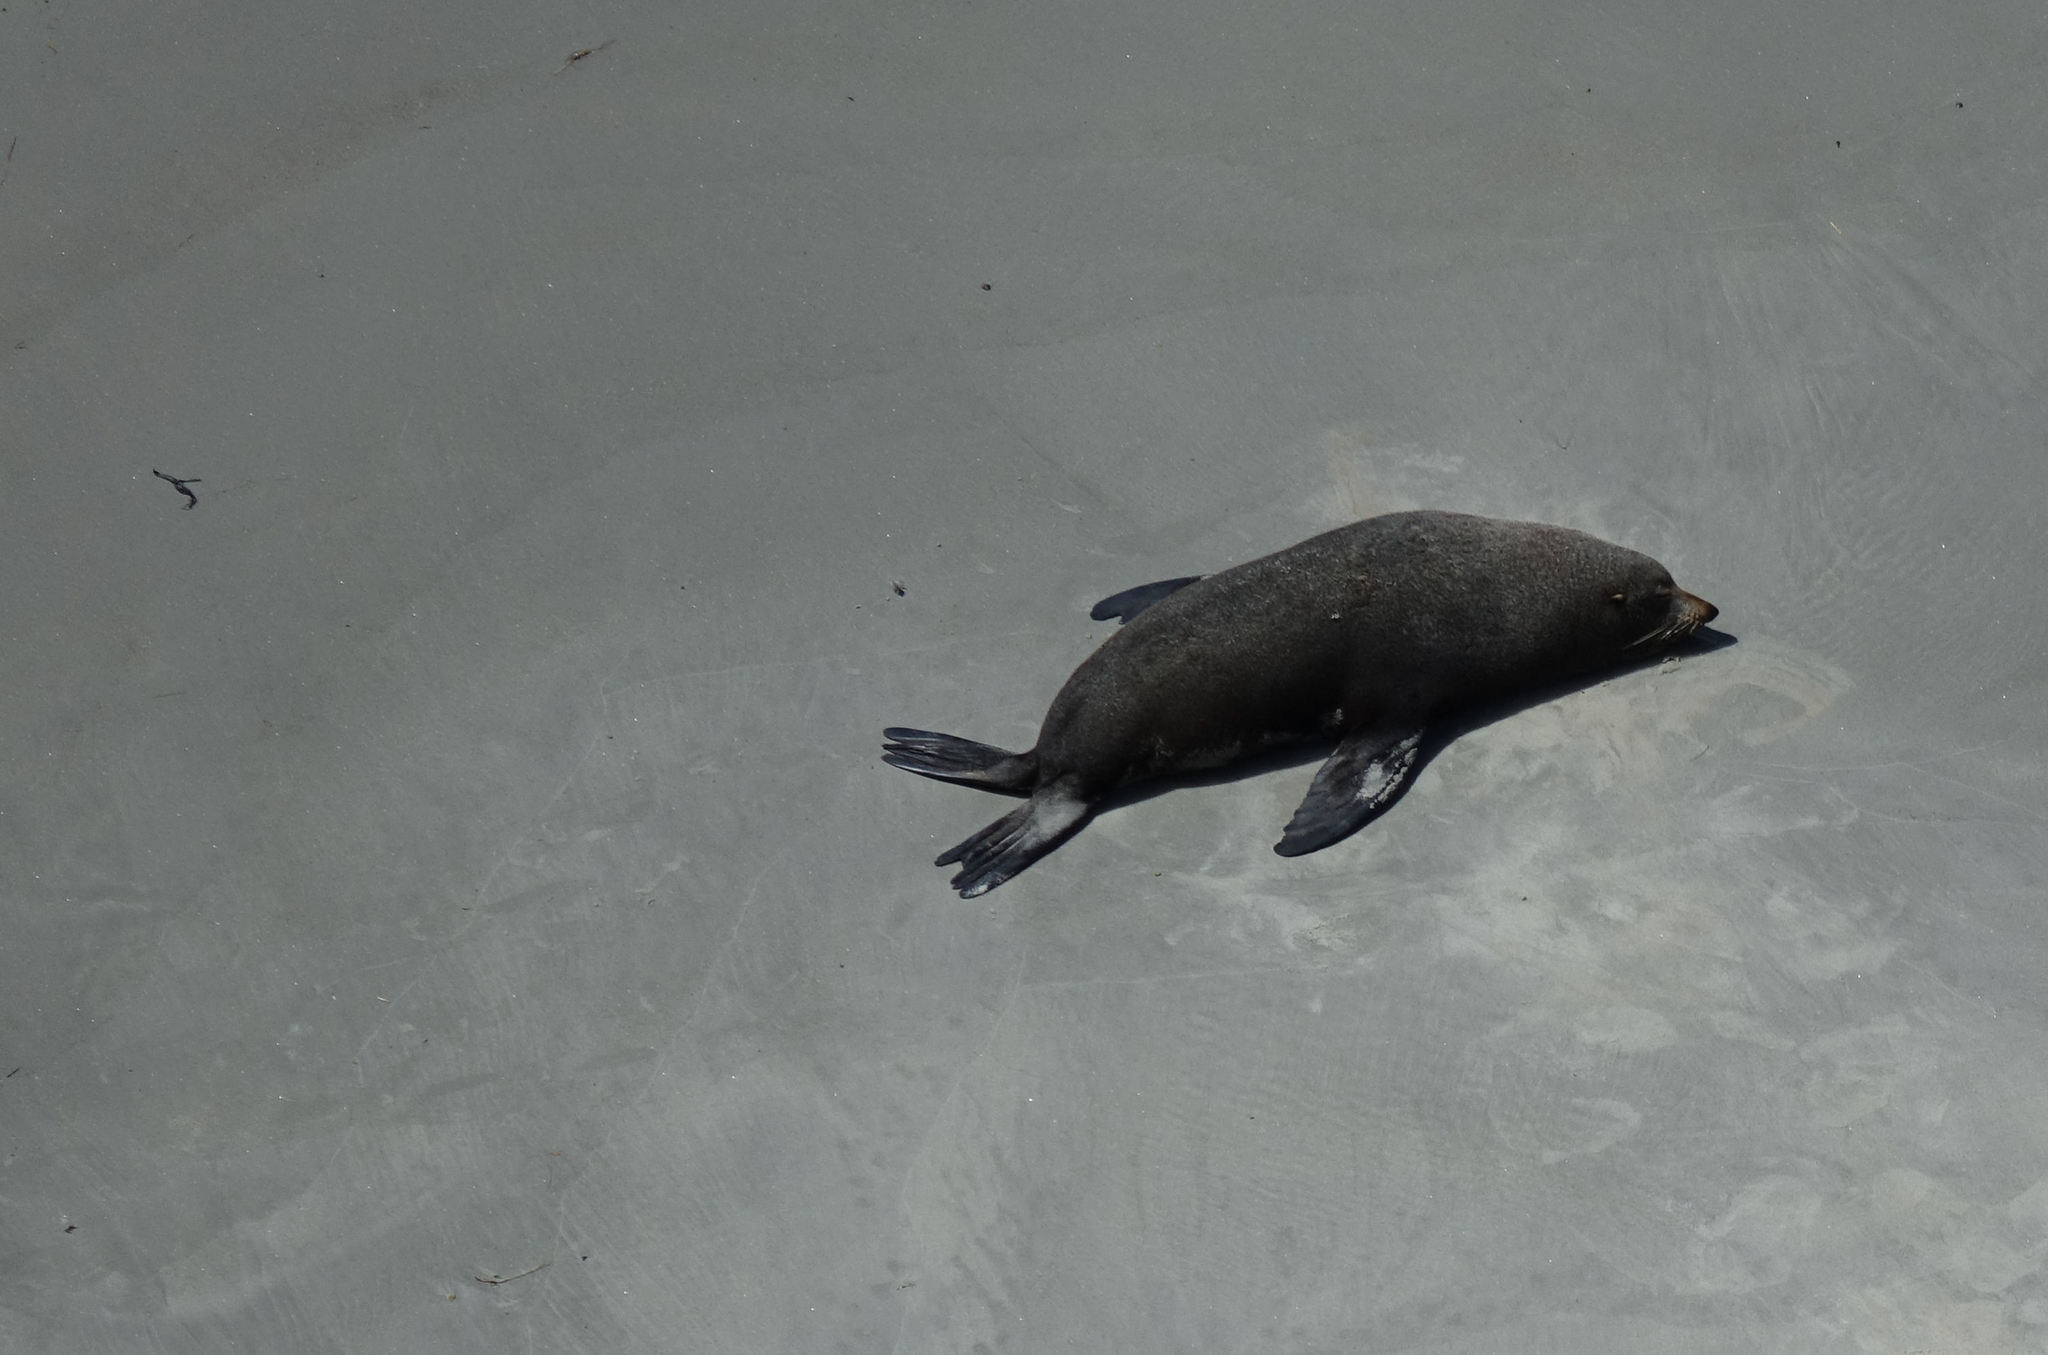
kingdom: Animalia
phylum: Chordata
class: Mammalia
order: Carnivora
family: Otariidae
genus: Arctocephalus
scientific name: Arctocephalus forsteri
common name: New zealand fur seal
